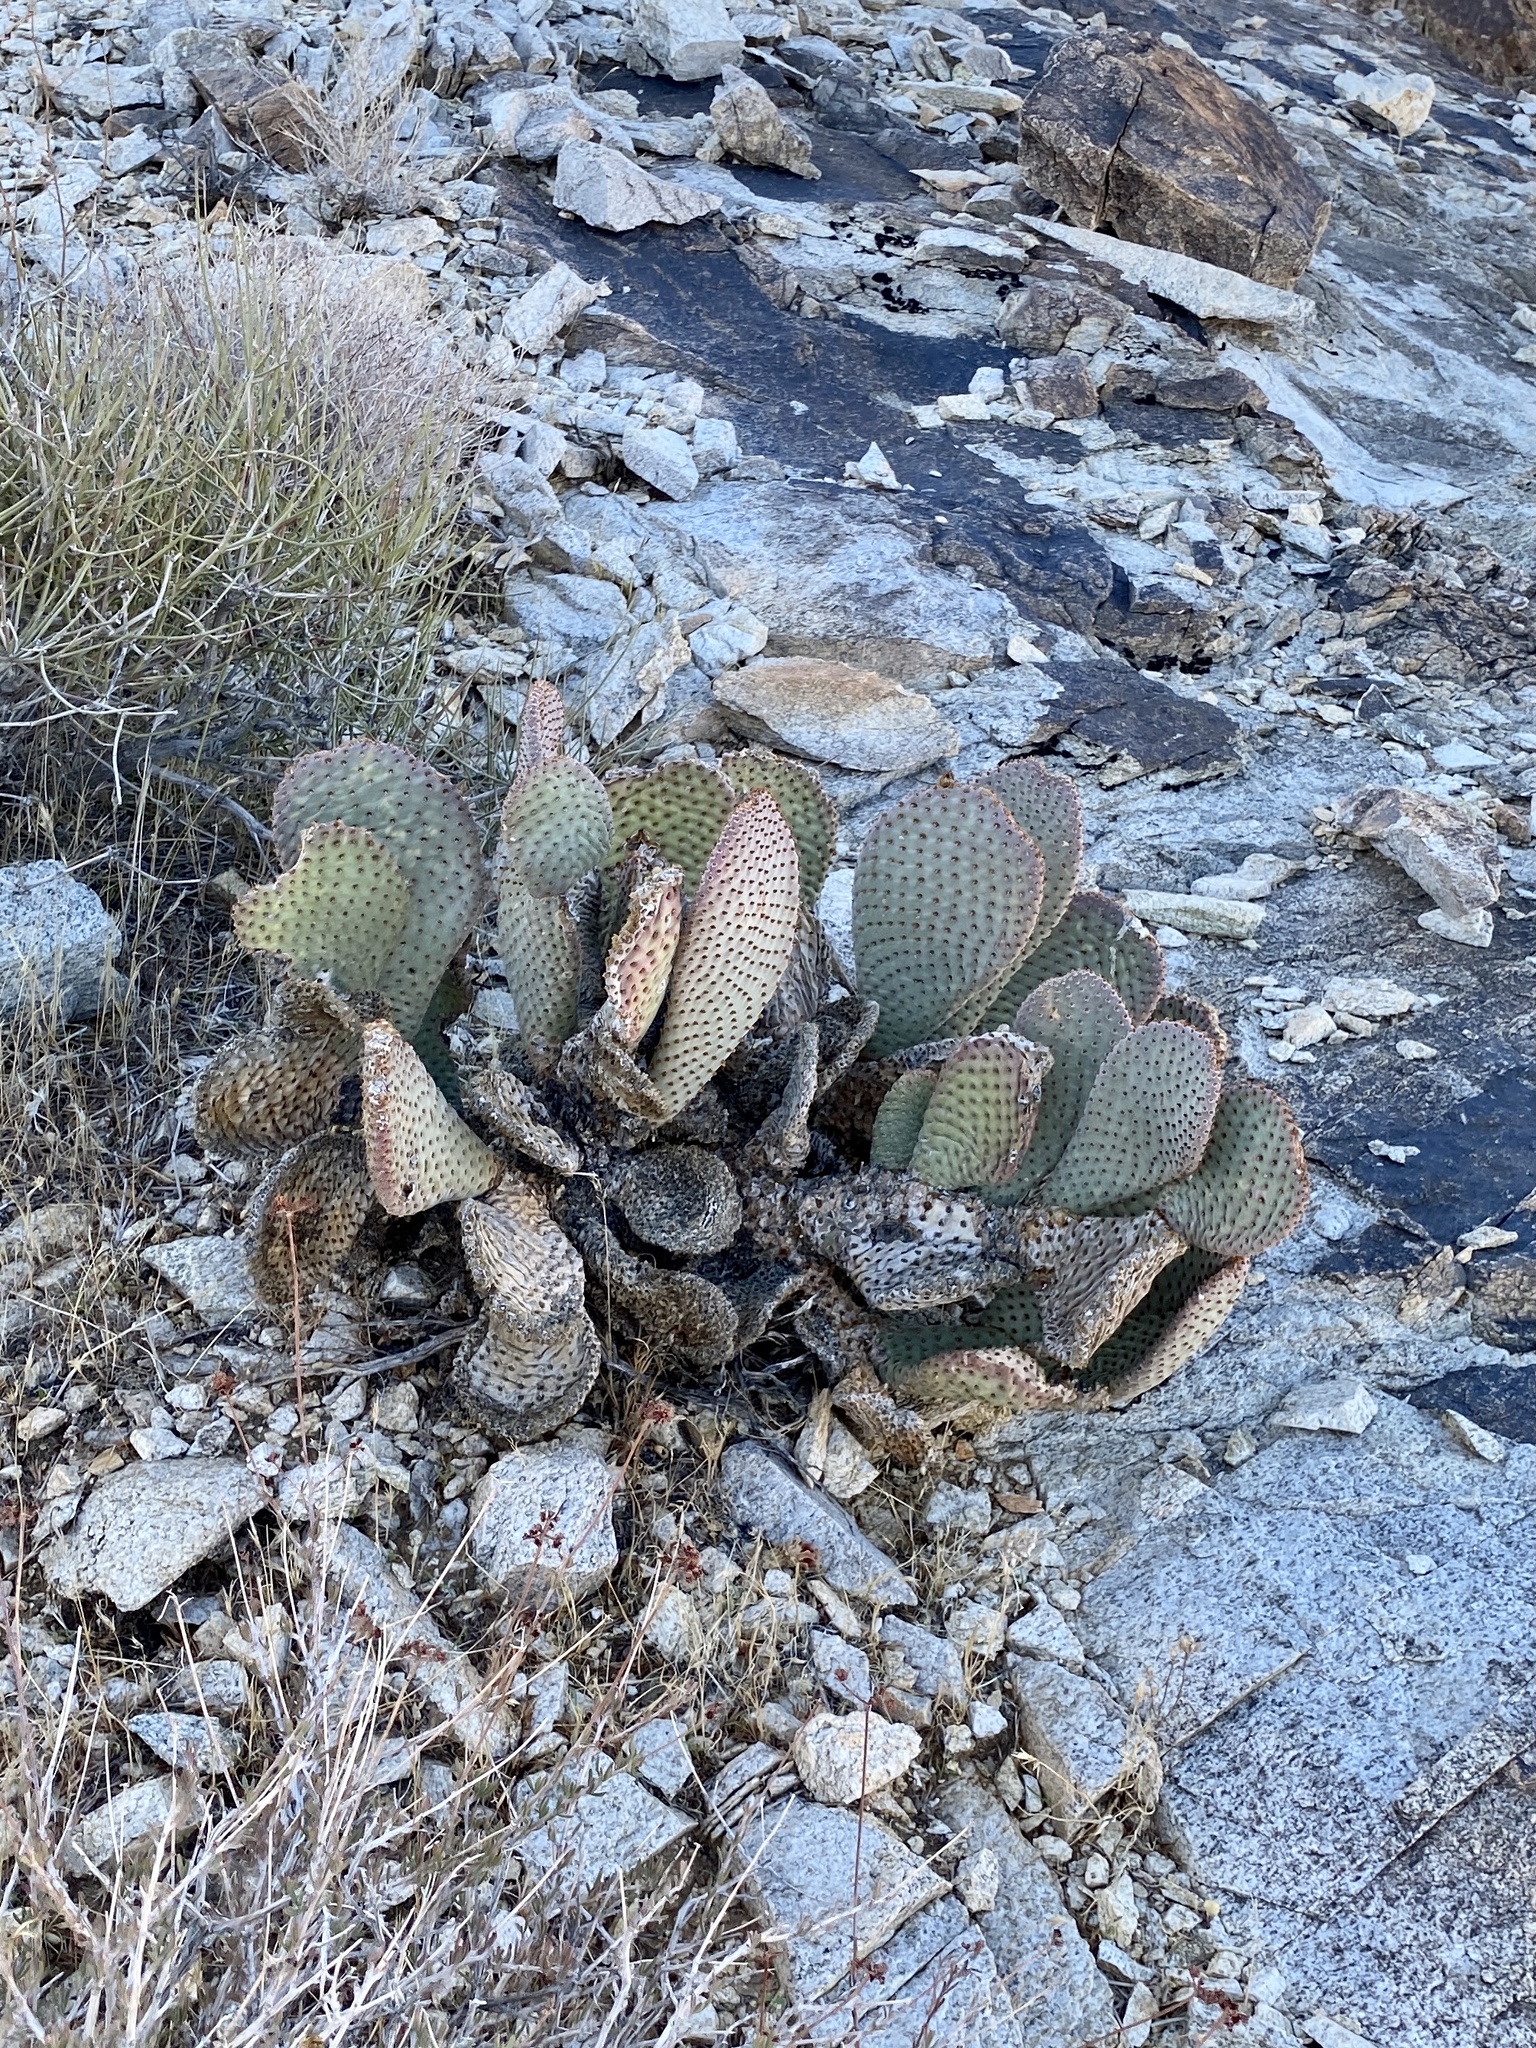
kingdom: Plantae
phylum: Tracheophyta
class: Magnoliopsida
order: Caryophyllales
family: Cactaceae
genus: Opuntia
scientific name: Opuntia basilaris
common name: Beavertail prickly-pear
